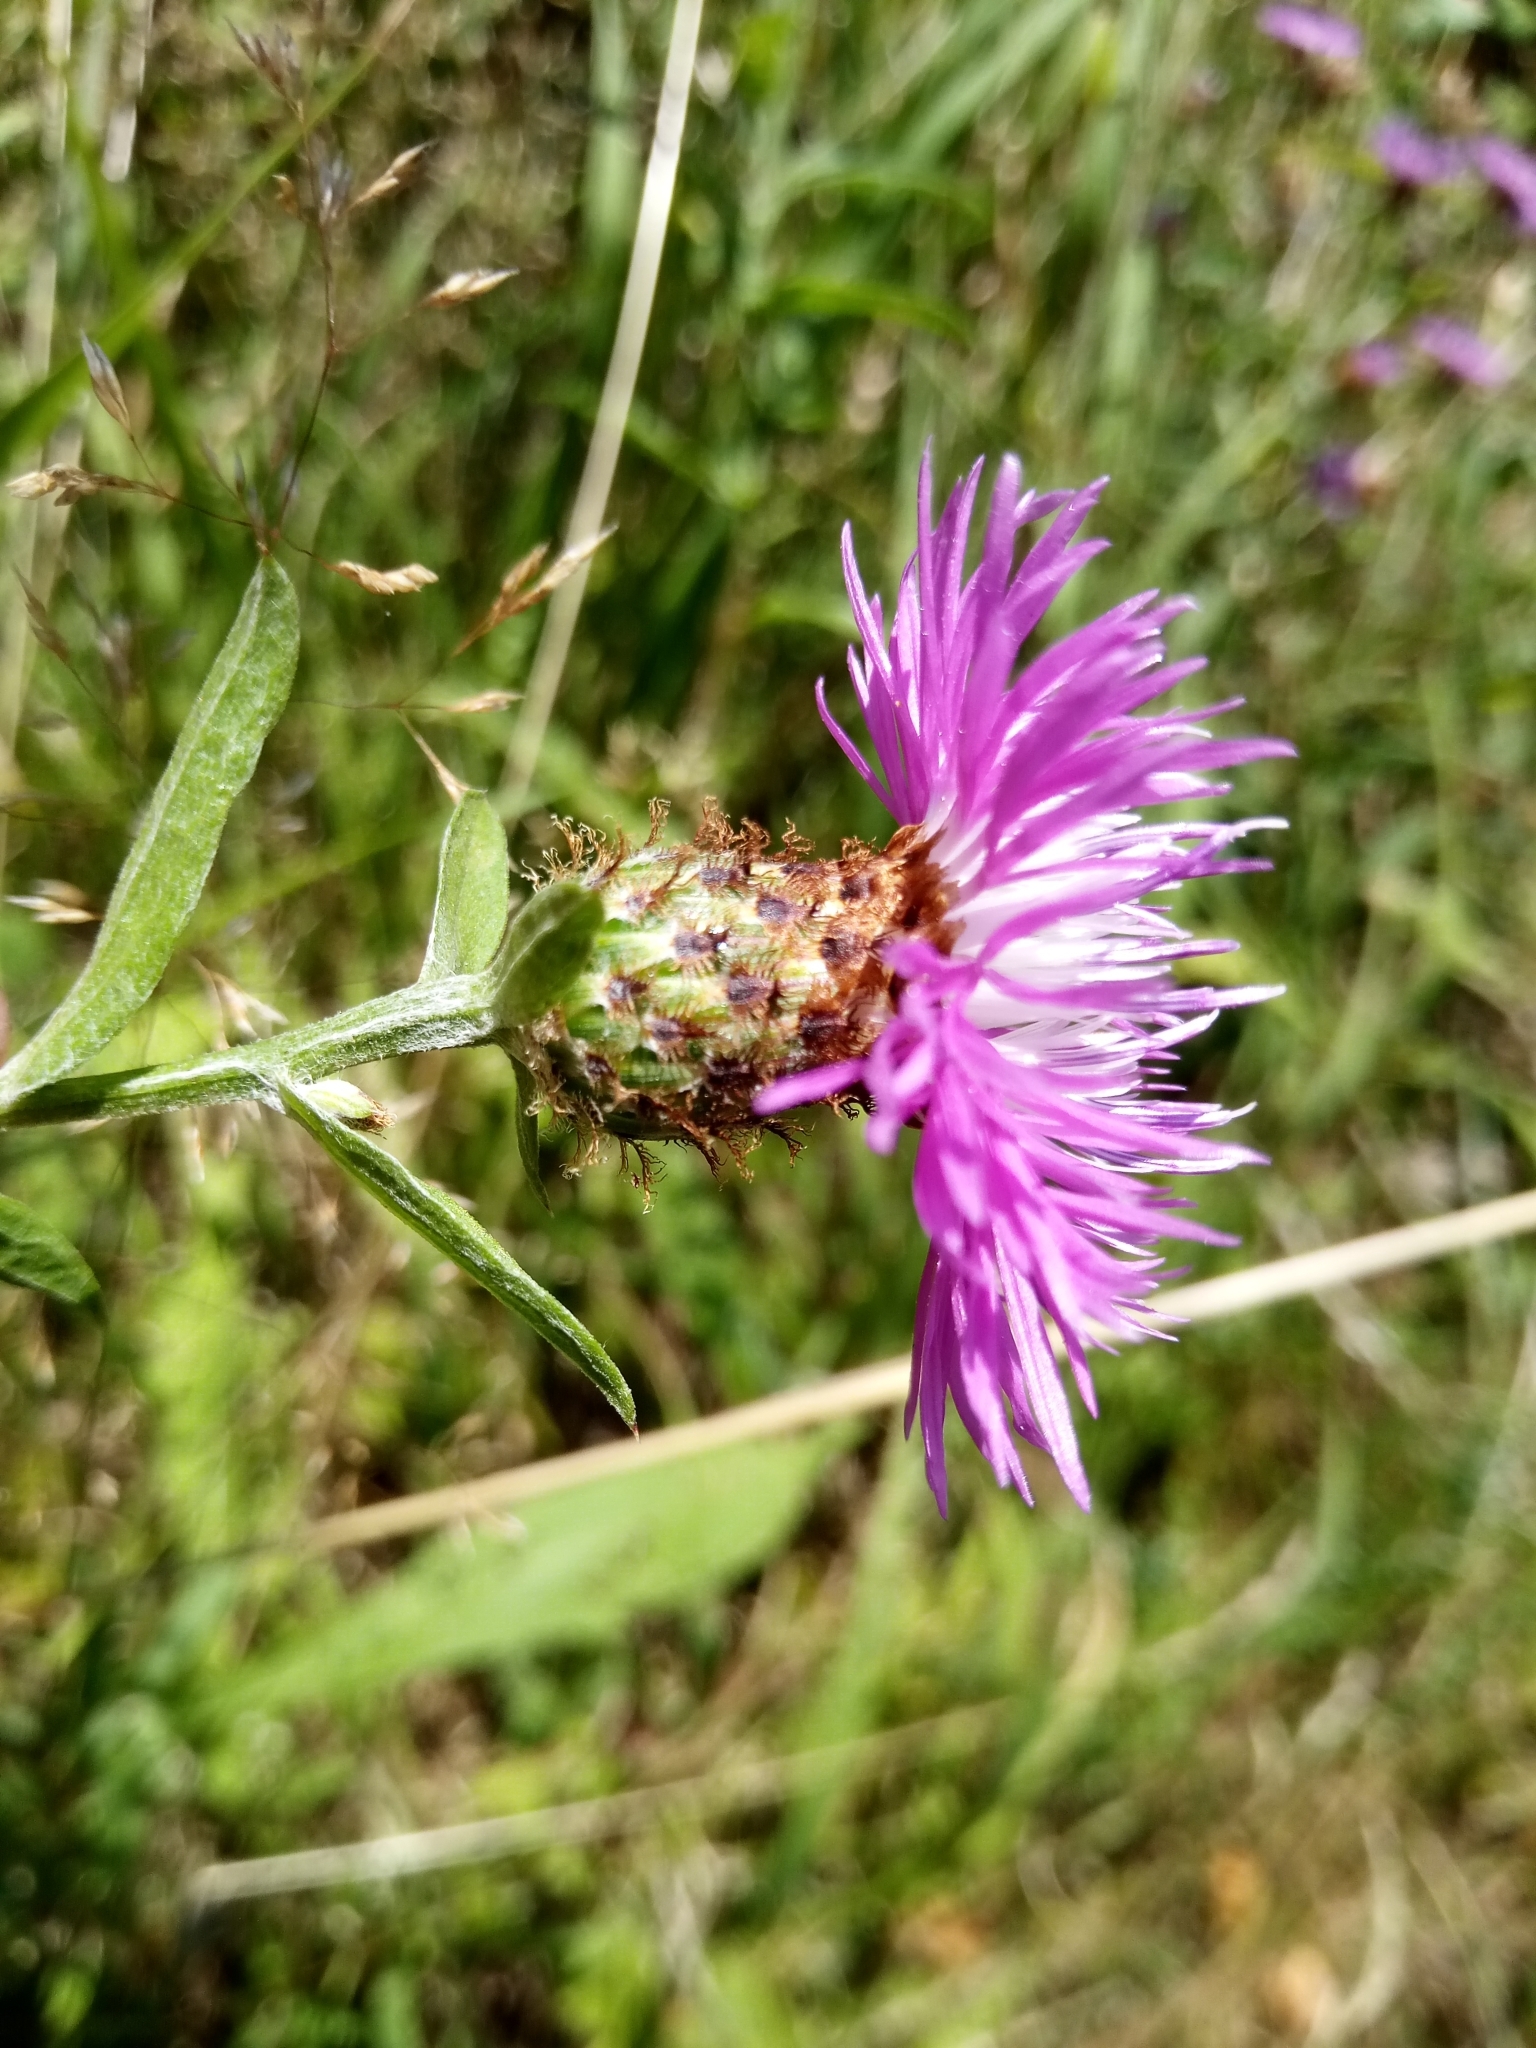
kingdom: Plantae
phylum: Tracheophyta
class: Magnoliopsida
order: Asterales
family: Asteraceae
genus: Centaurea
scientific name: Centaurea fleischeri
